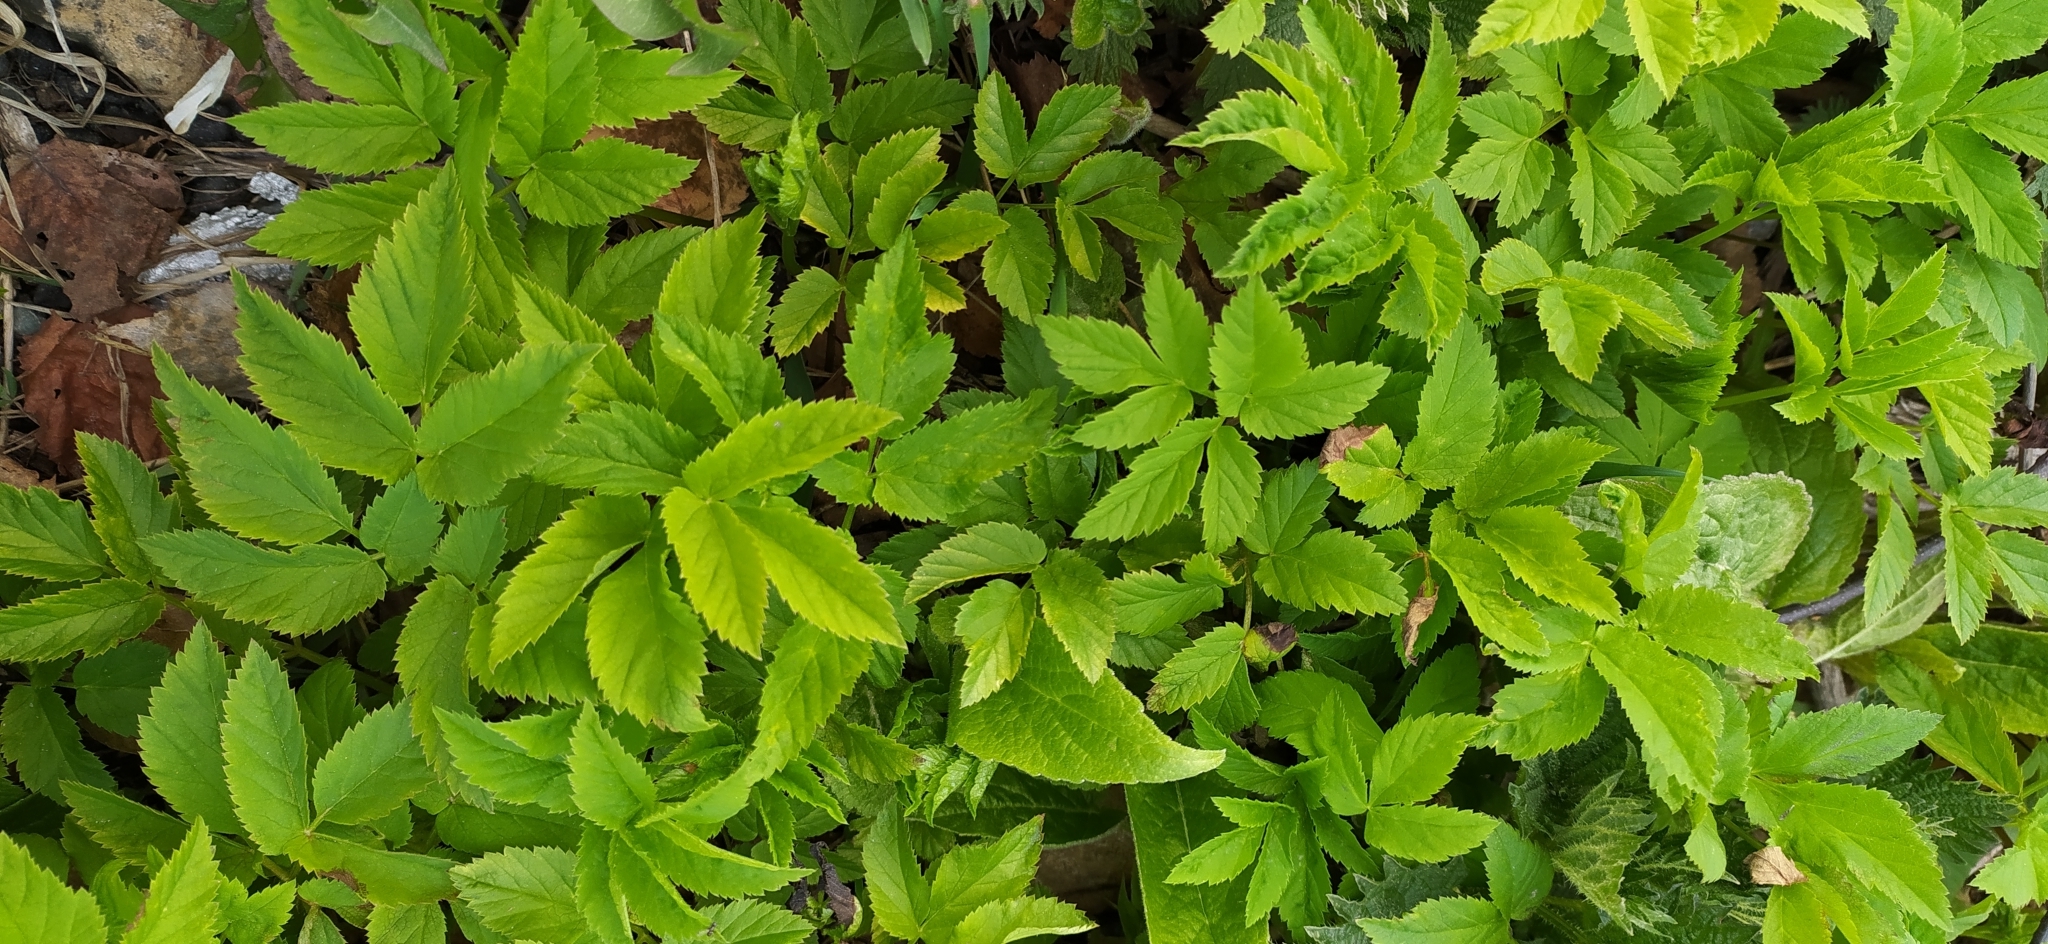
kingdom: Plantae
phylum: Tracheophyta
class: Magnoliopsida
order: Apiales
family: Apiaceae
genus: Aegopodium
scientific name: Aegopodium podagraria
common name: Ground-elder
